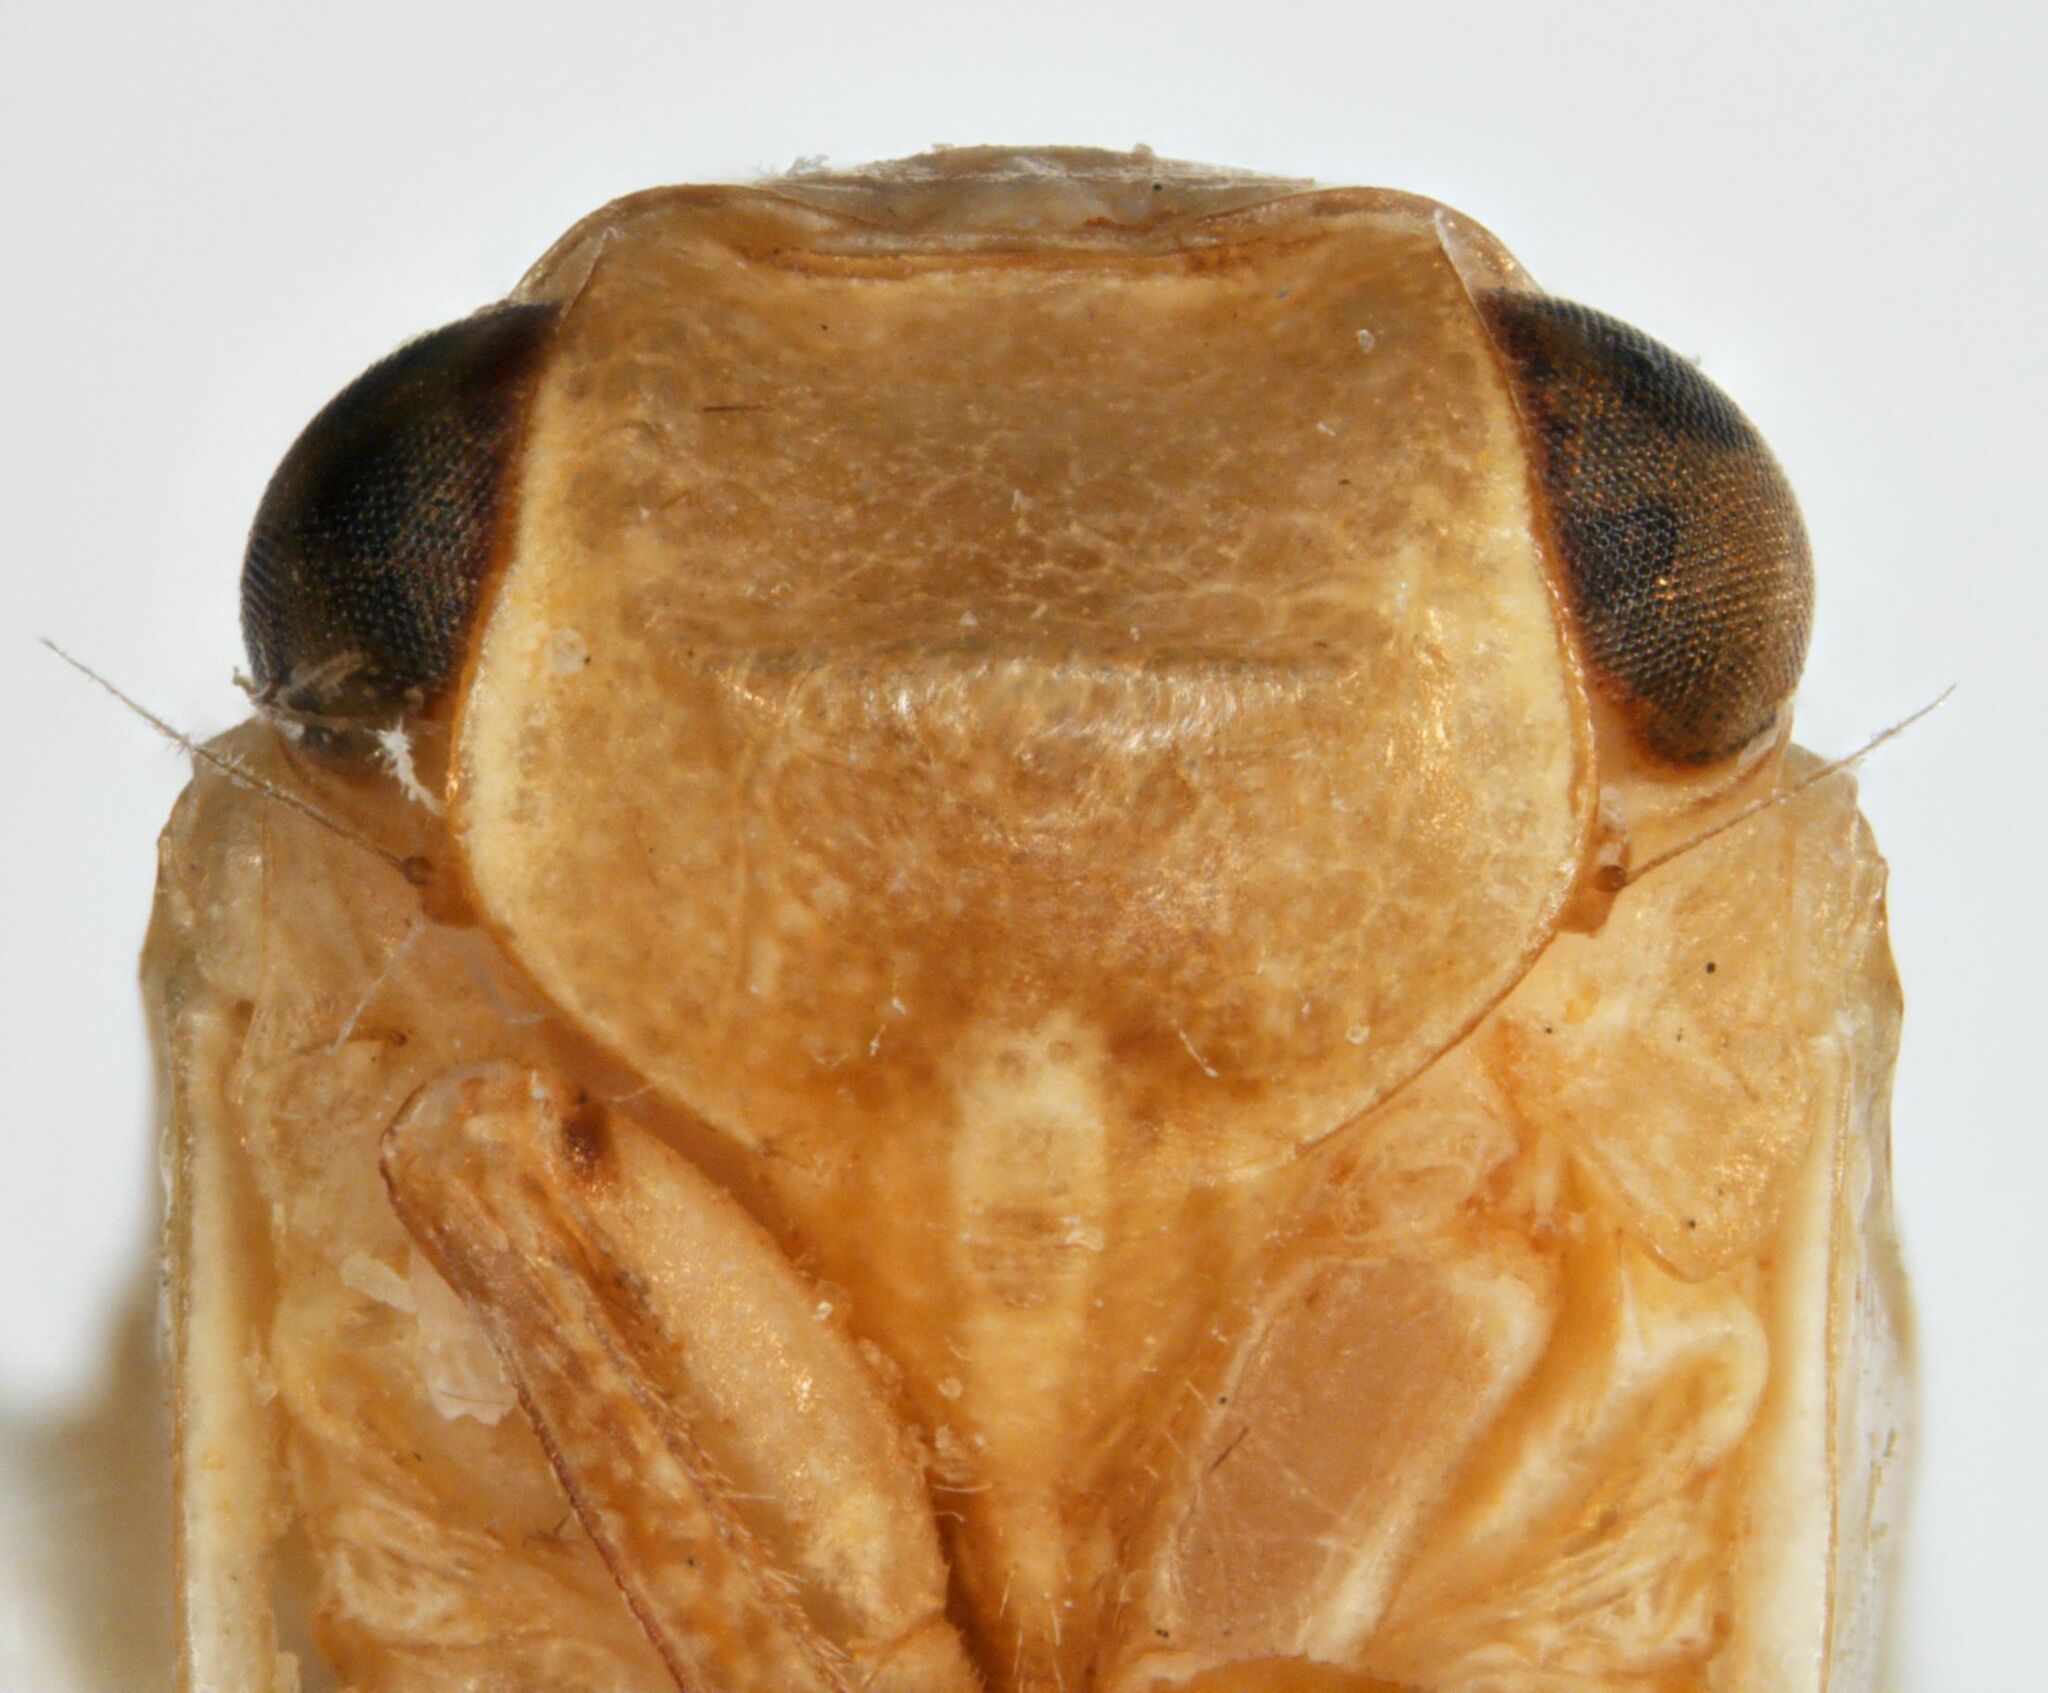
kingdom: Animalia
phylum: Arthropoda
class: Insecta
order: Hemiptera
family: Acanaloniidae
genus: Bulldolonia
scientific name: Bulldolonia depressa
